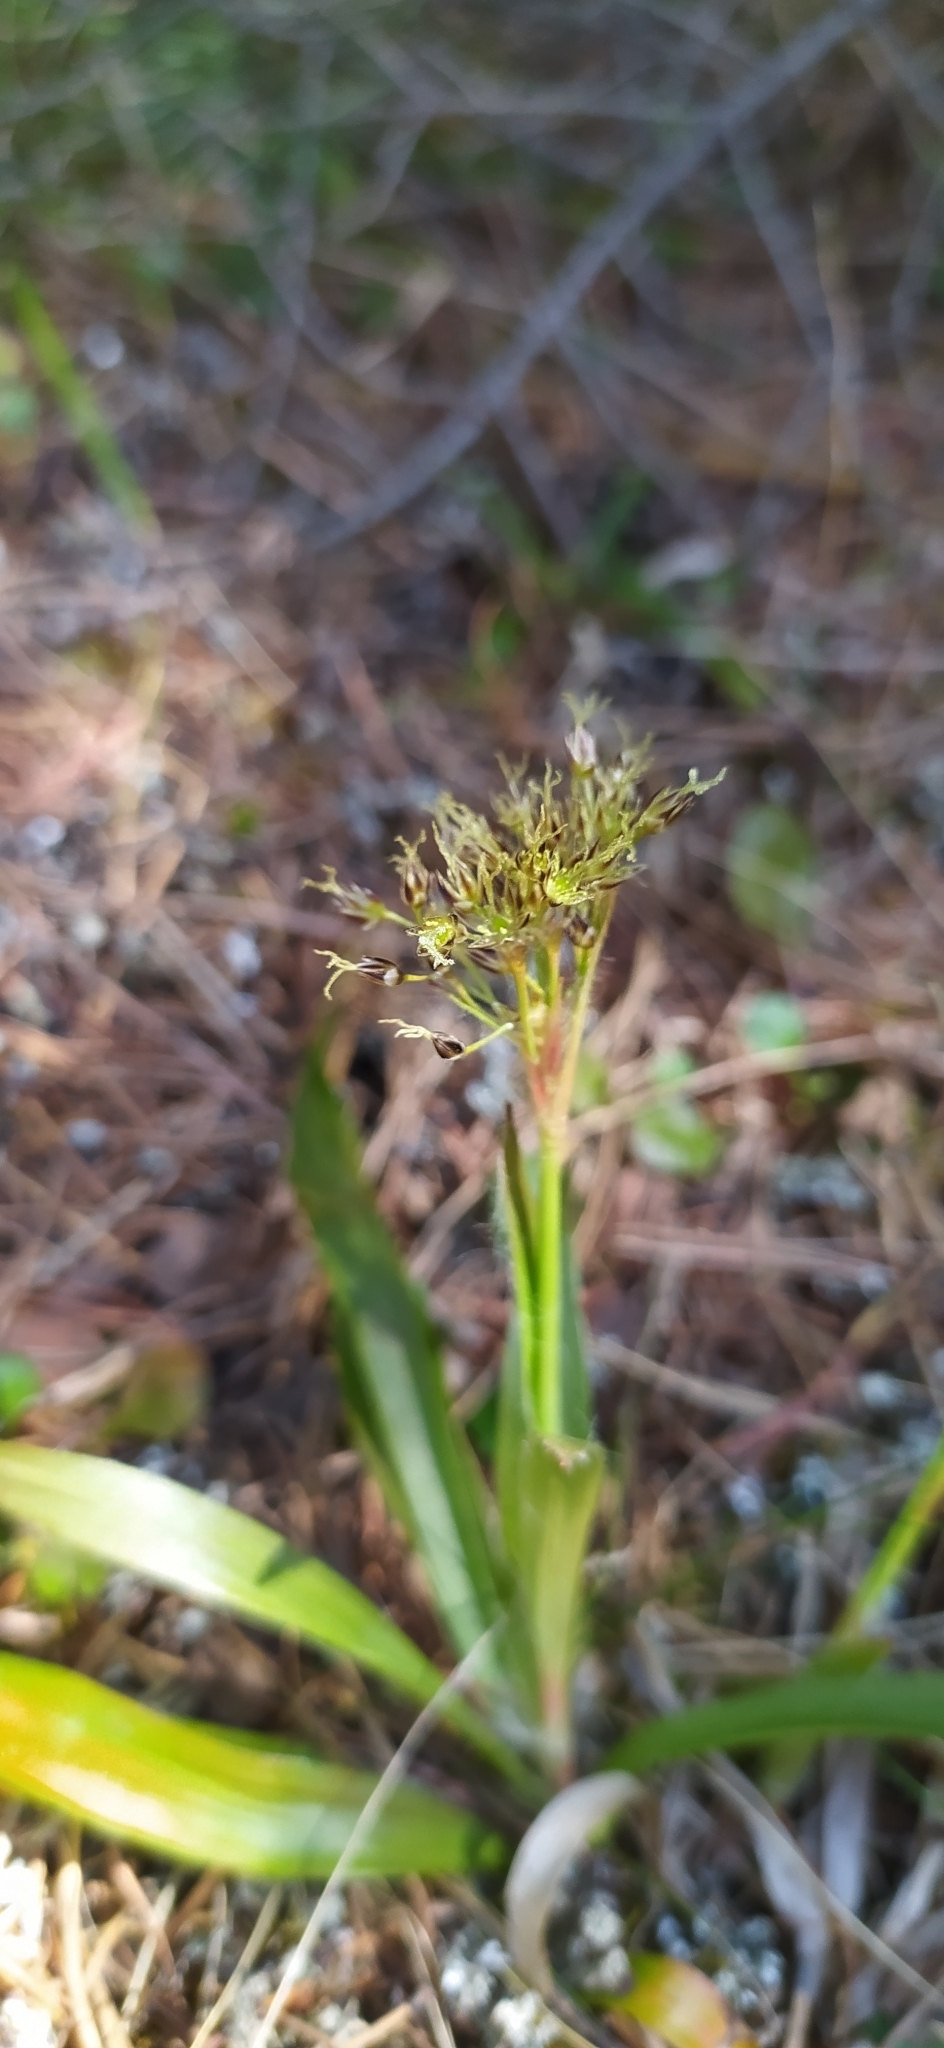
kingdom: Plantae
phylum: Tracheophyta
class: Liliopsida
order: Poales
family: Juncaceae
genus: Luzula
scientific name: Luzula pilosa
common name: Hairy wood-rush
